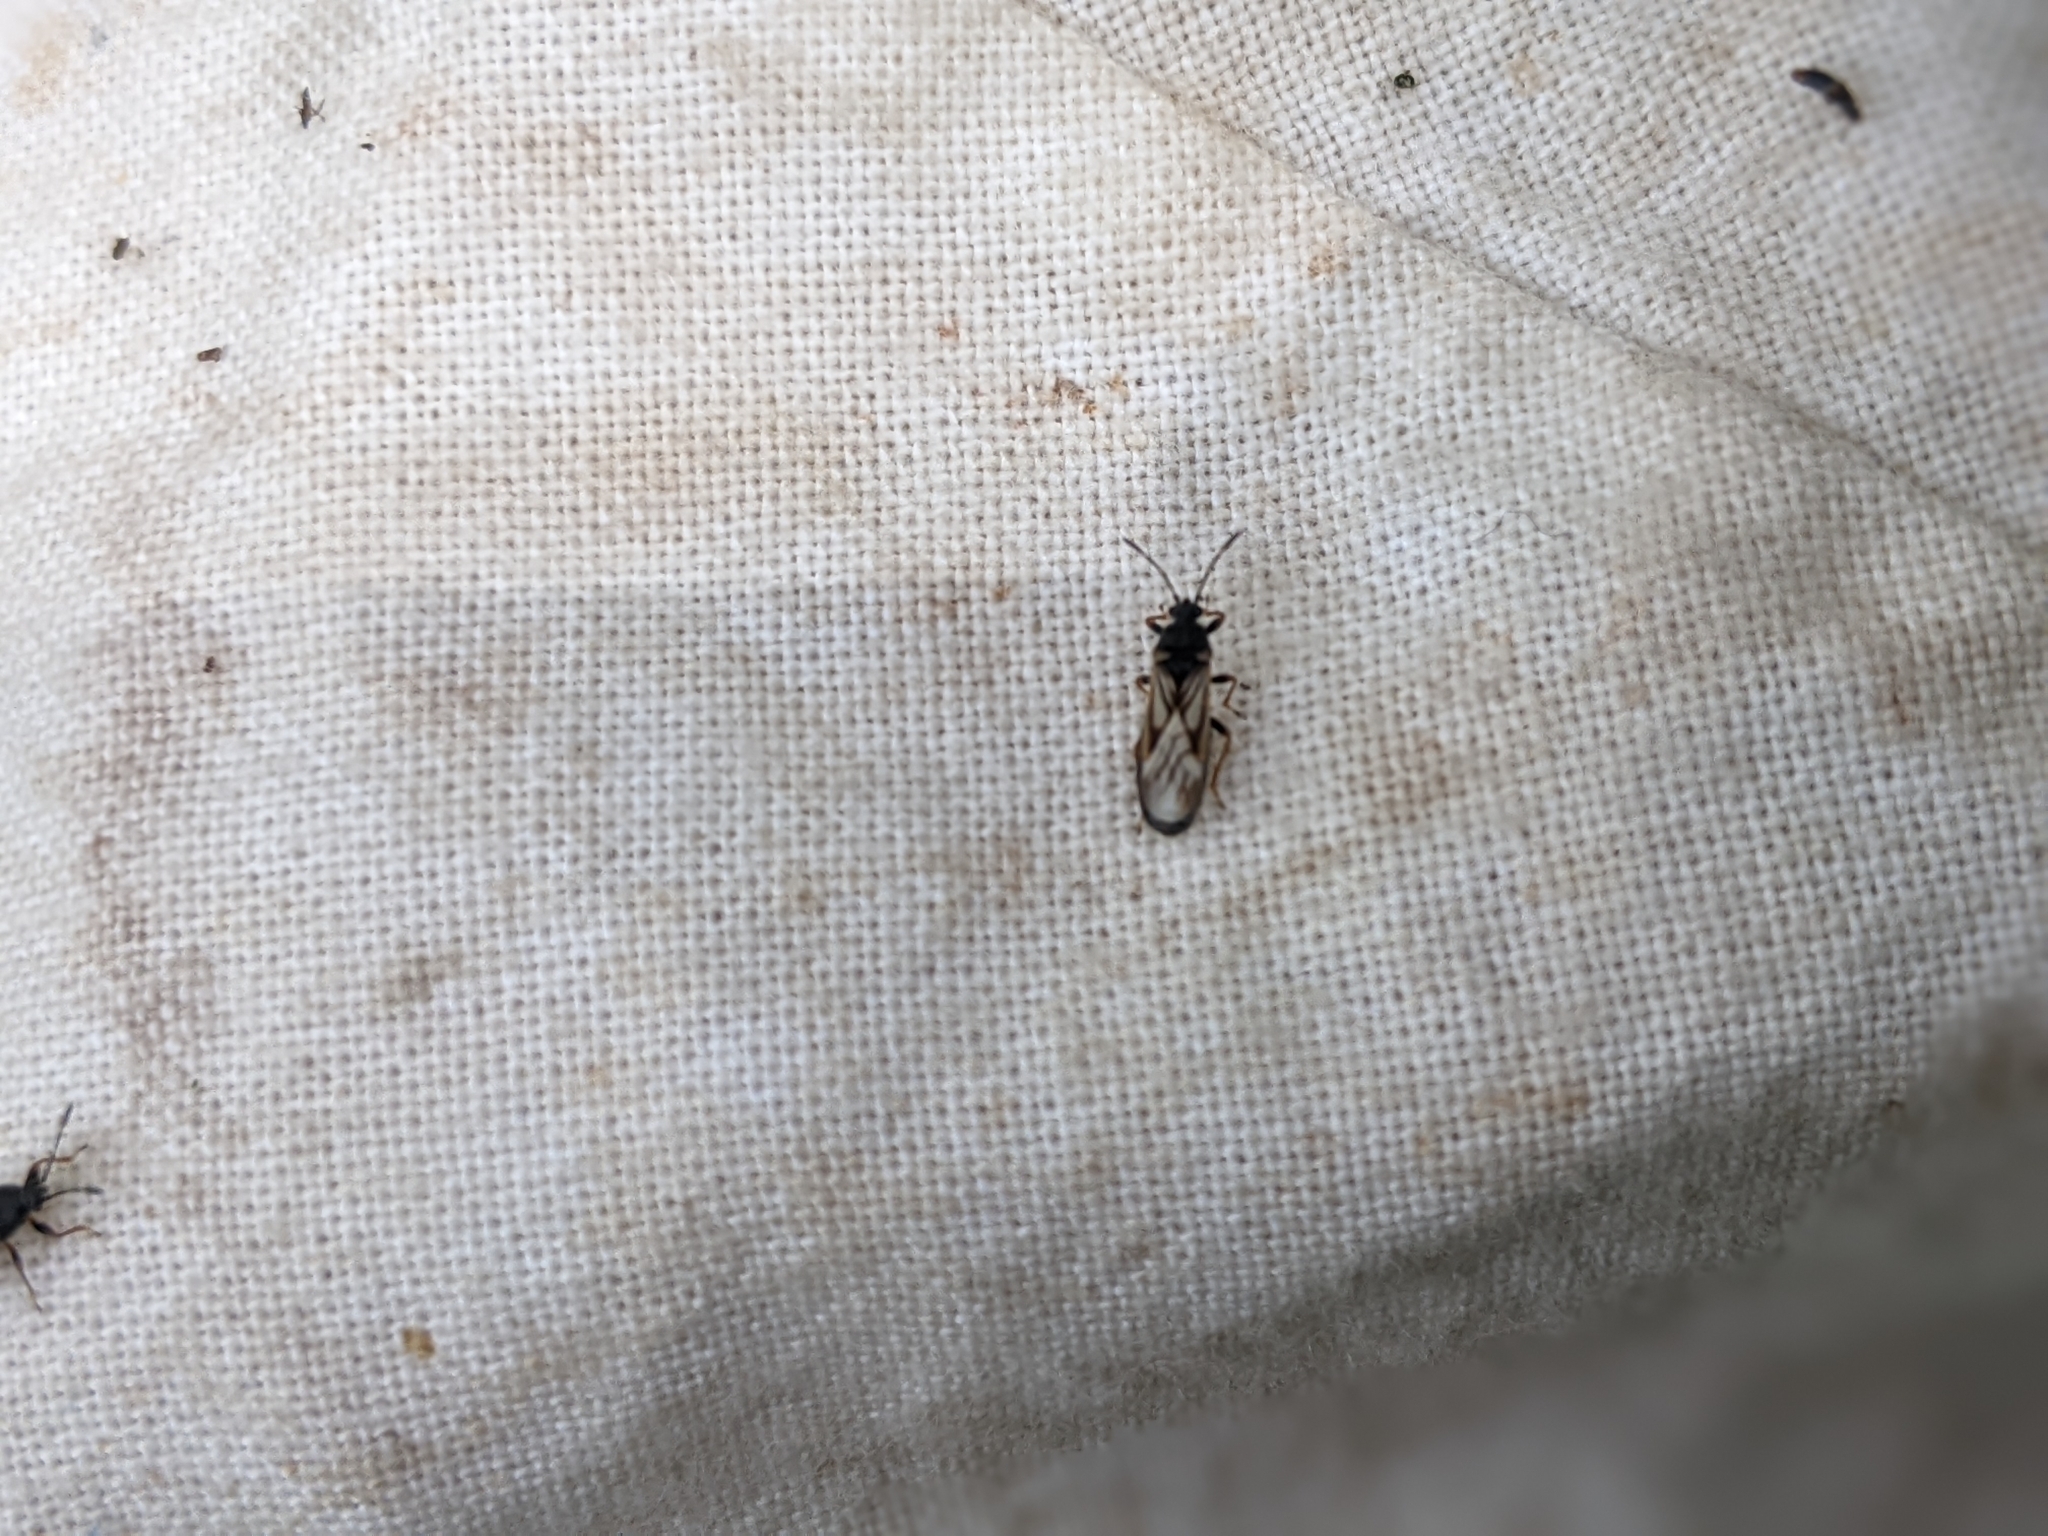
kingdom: Animalia
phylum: Arthropoda
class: Insecta
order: Hemiptera
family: Blissidae
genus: Ischnodemus
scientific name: Ischnodemus sabuleti
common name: European cinchbug
